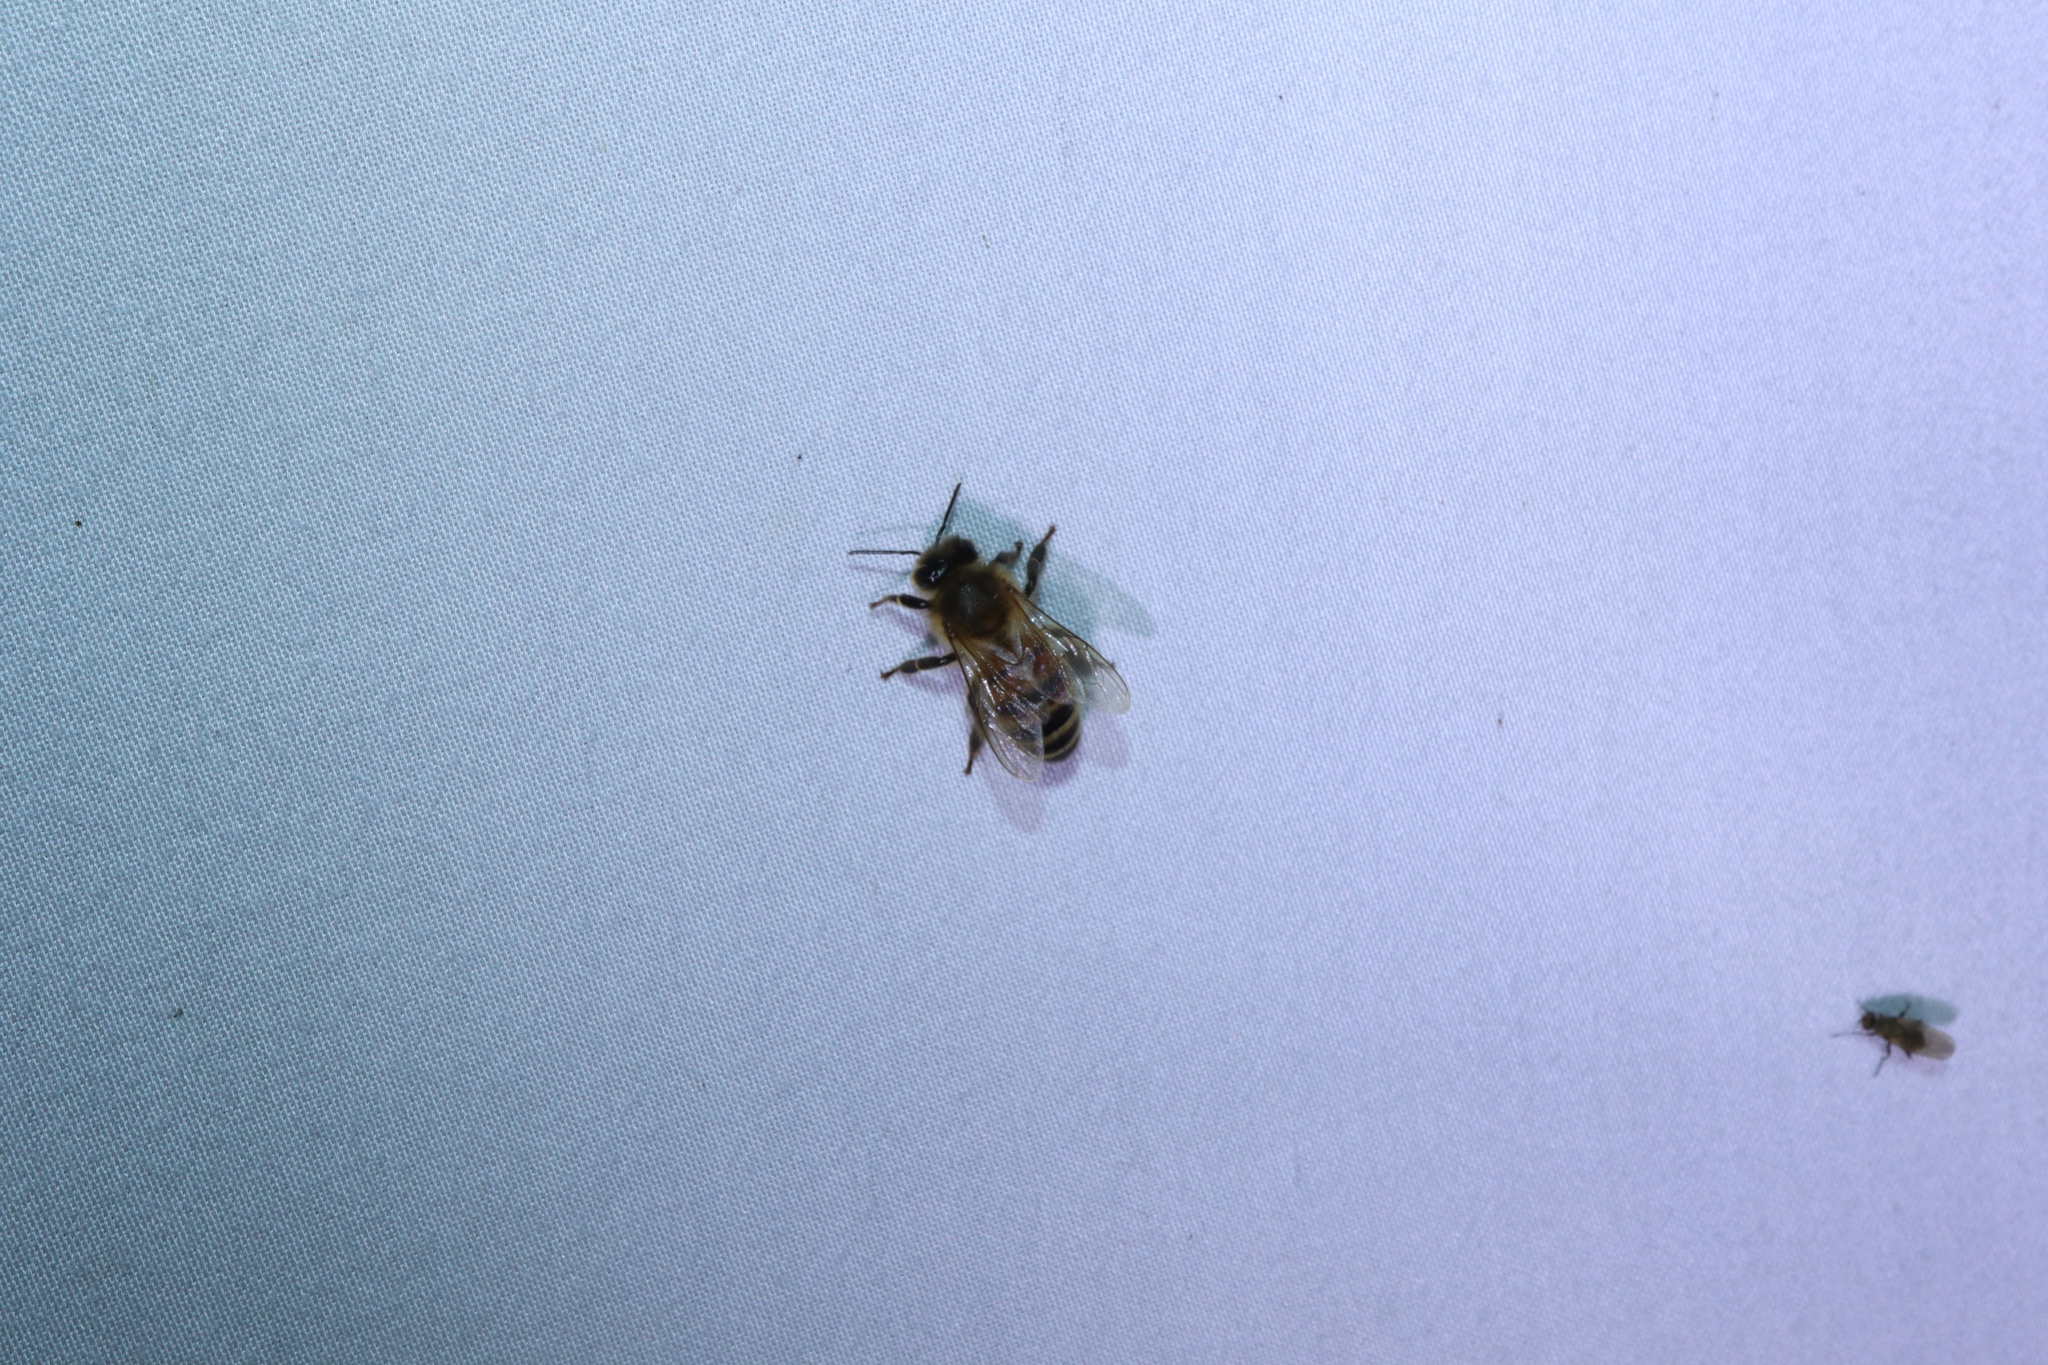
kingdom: Animalia
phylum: Arthropoda
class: Insecta
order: Hymenoptera
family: Apidae
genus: Apis
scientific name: Apis mellifera
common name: Honey bee
